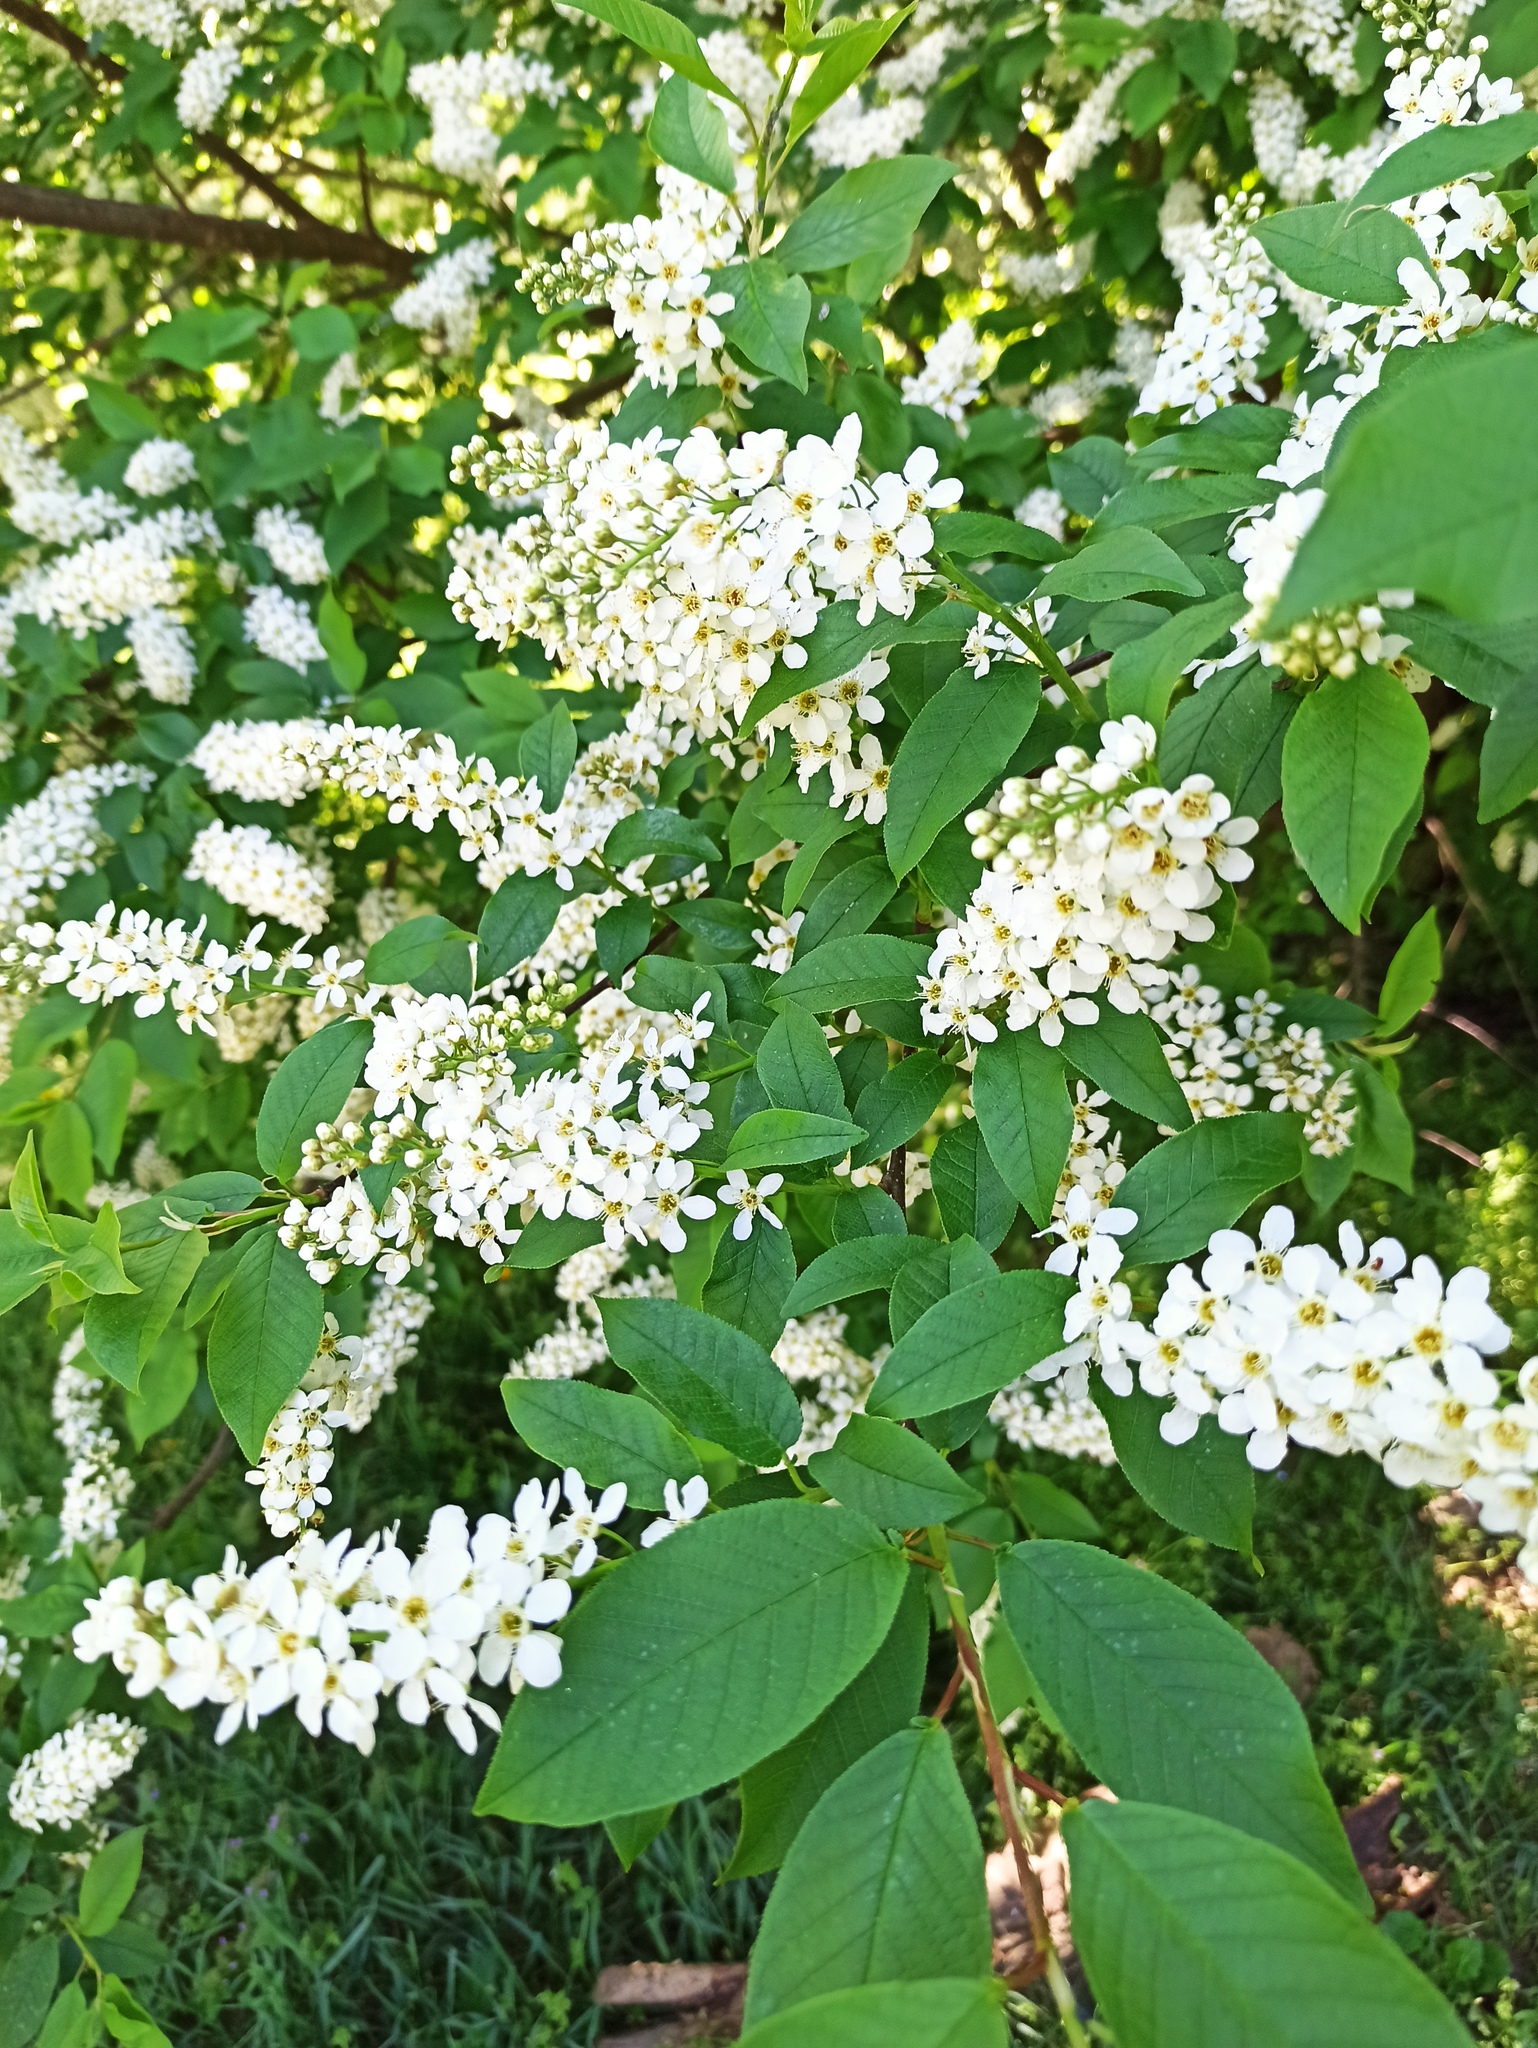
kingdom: Plantae
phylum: Tracheophyta
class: Magnoliopsida
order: Rosales
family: Rosaceae
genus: Prunus
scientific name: Prunus padus
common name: Bird cherry
